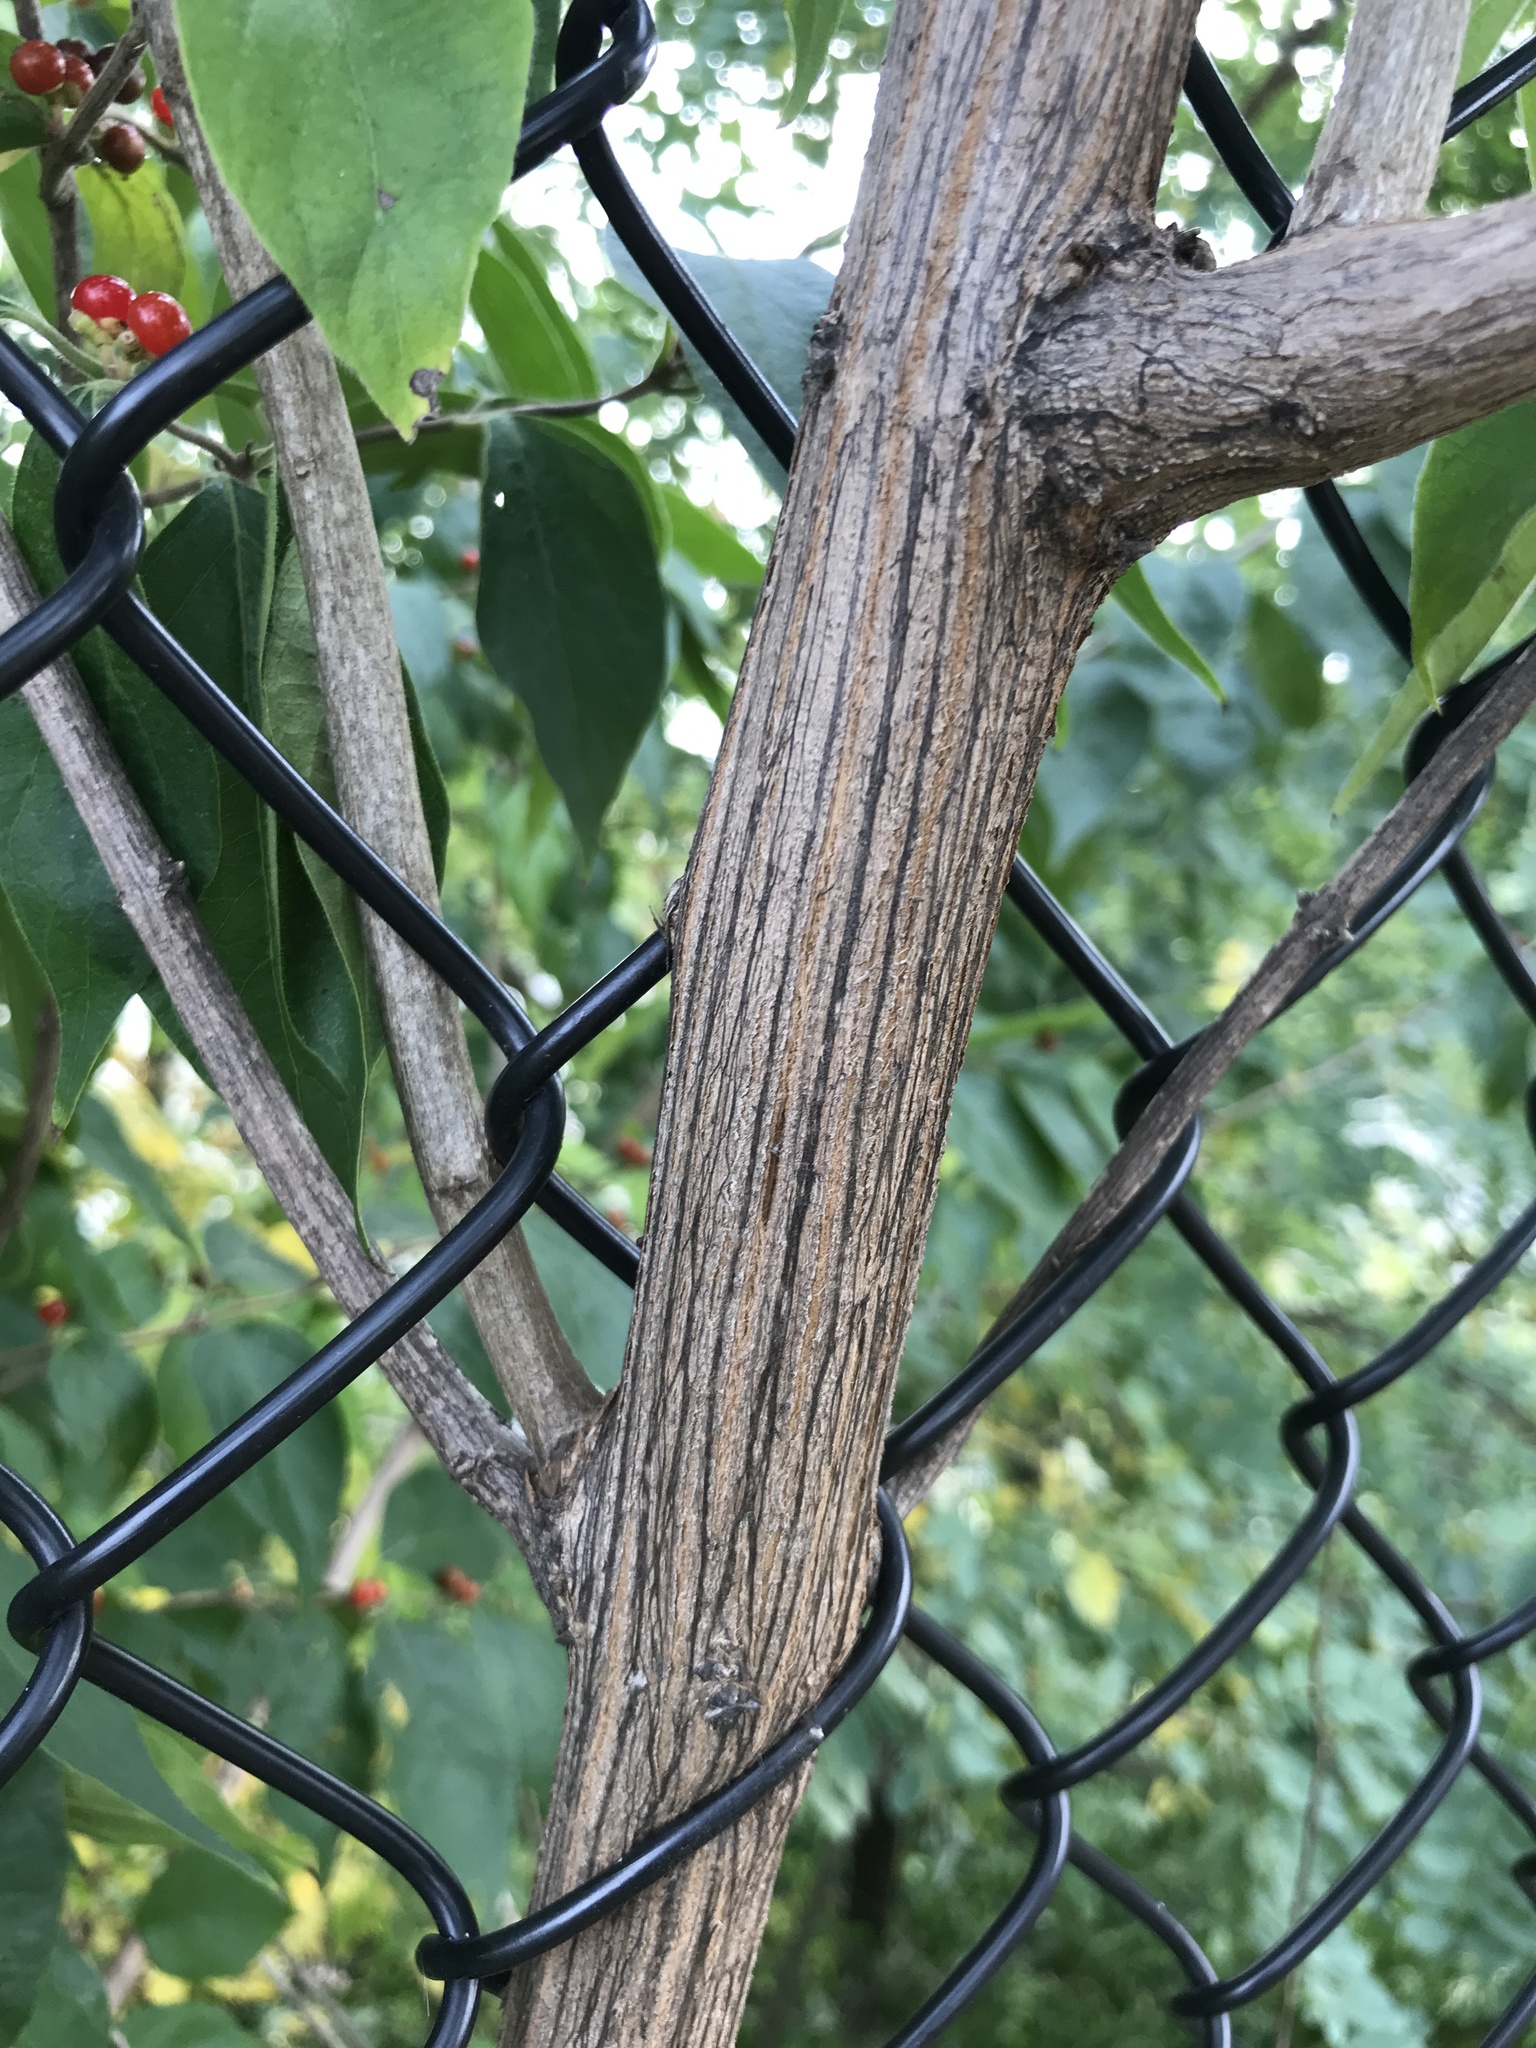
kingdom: Plantae
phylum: Tracheophyta
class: Magnoliopsida
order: Dipsacales
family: Caprifoliaceae
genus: Lonicera
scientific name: Lonicera maackii
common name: Amur honeysuckle
